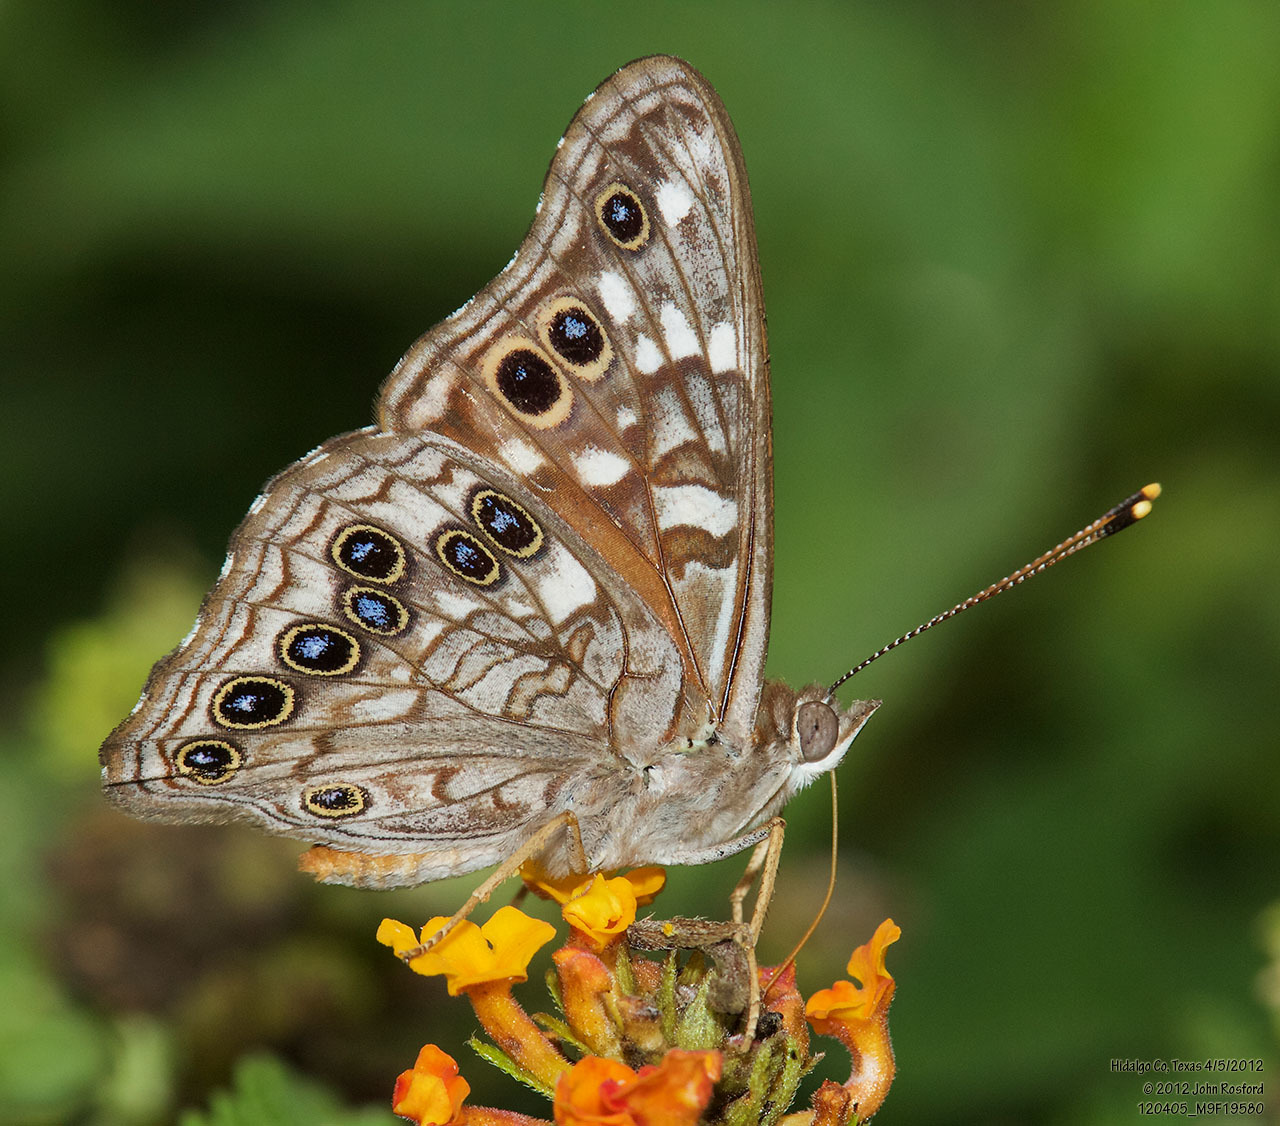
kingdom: Animalia
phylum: Arthropoda
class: Insecta
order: Lepidoptera
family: Nymphalidae
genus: Asterocampa
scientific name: Asterocampa leilia
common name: Empress leilia
